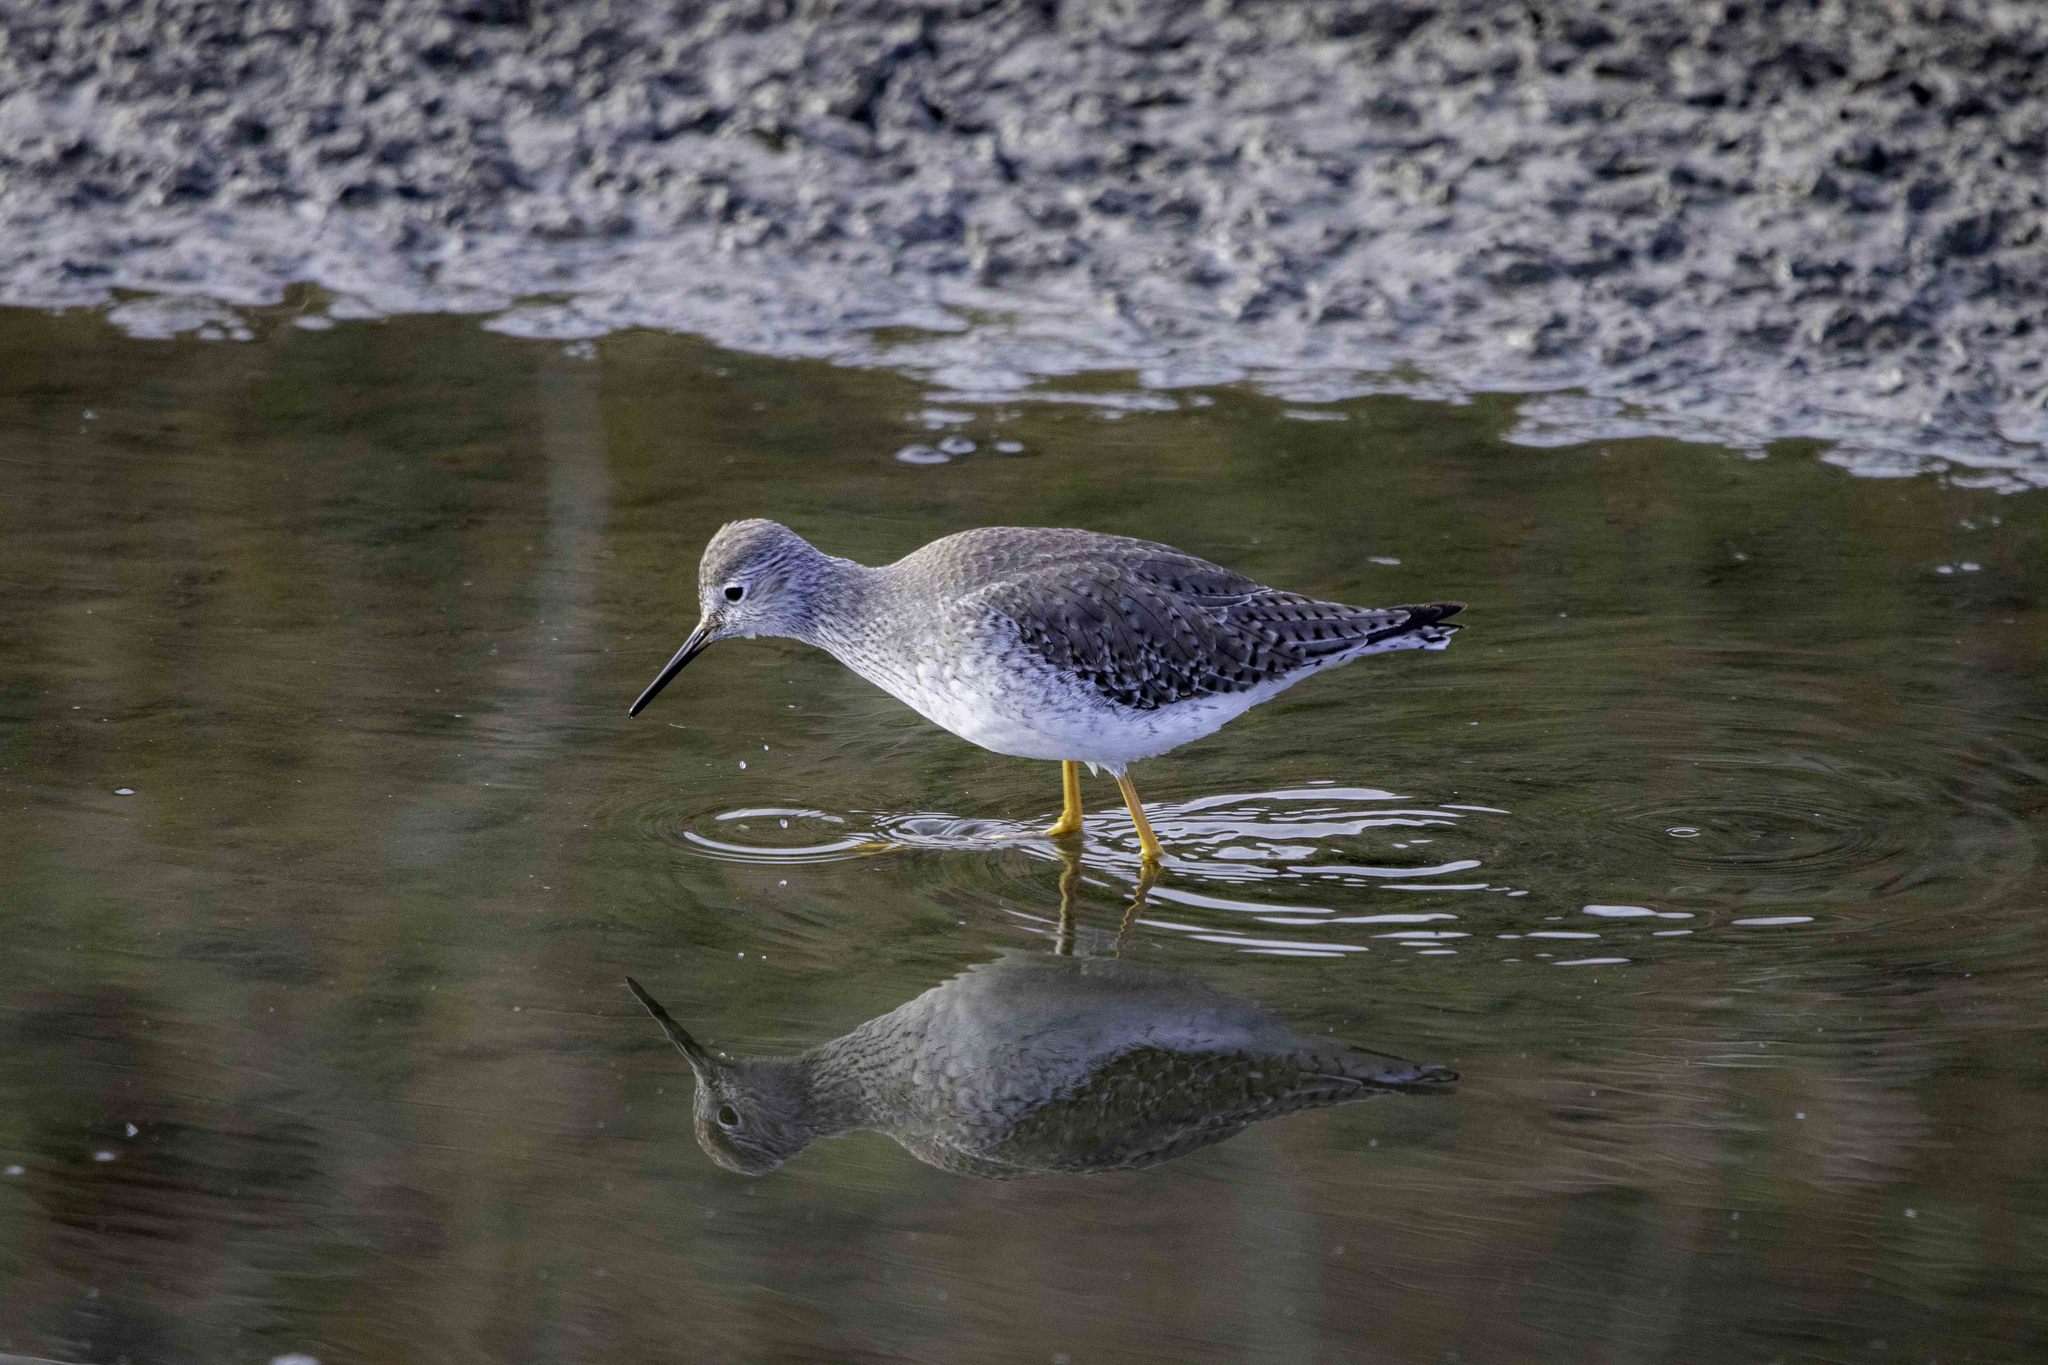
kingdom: Animalia
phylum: Chordata
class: Aves
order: Charadriiformes
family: Scolopacidae
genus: Tringa
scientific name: Tringa flavipes
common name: Lesser yellowlegs
